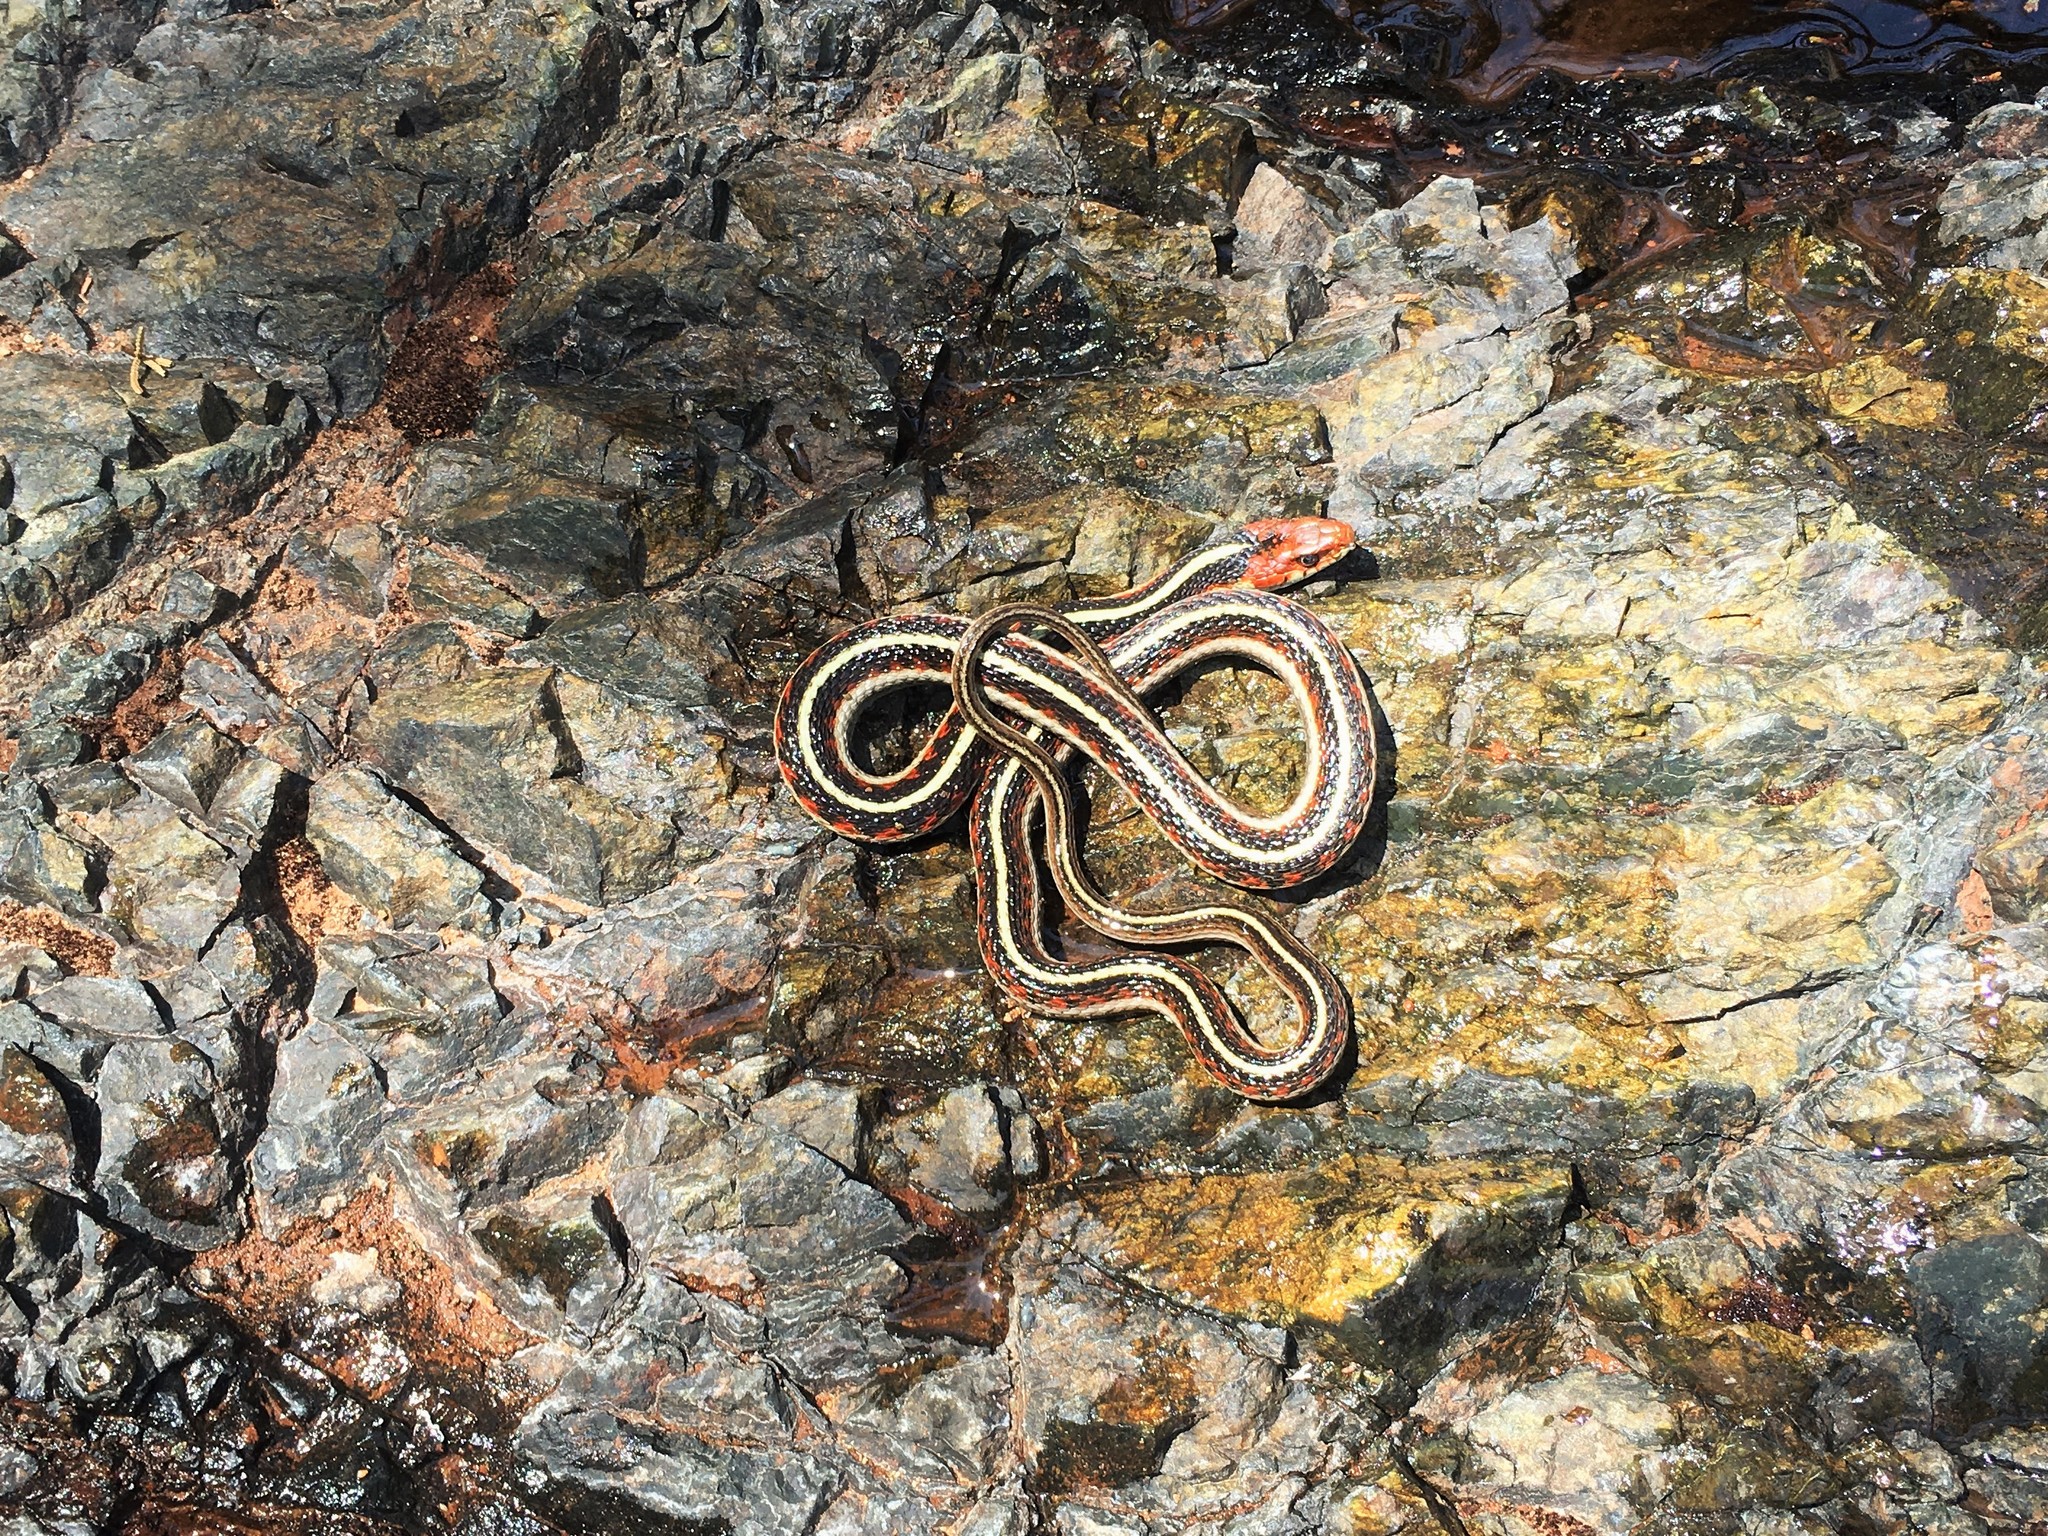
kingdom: Animalia
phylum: Chordata
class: Squamata
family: Colubridae
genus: Thamnophis
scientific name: Thamnophis sirtalis
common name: Common garter snake
